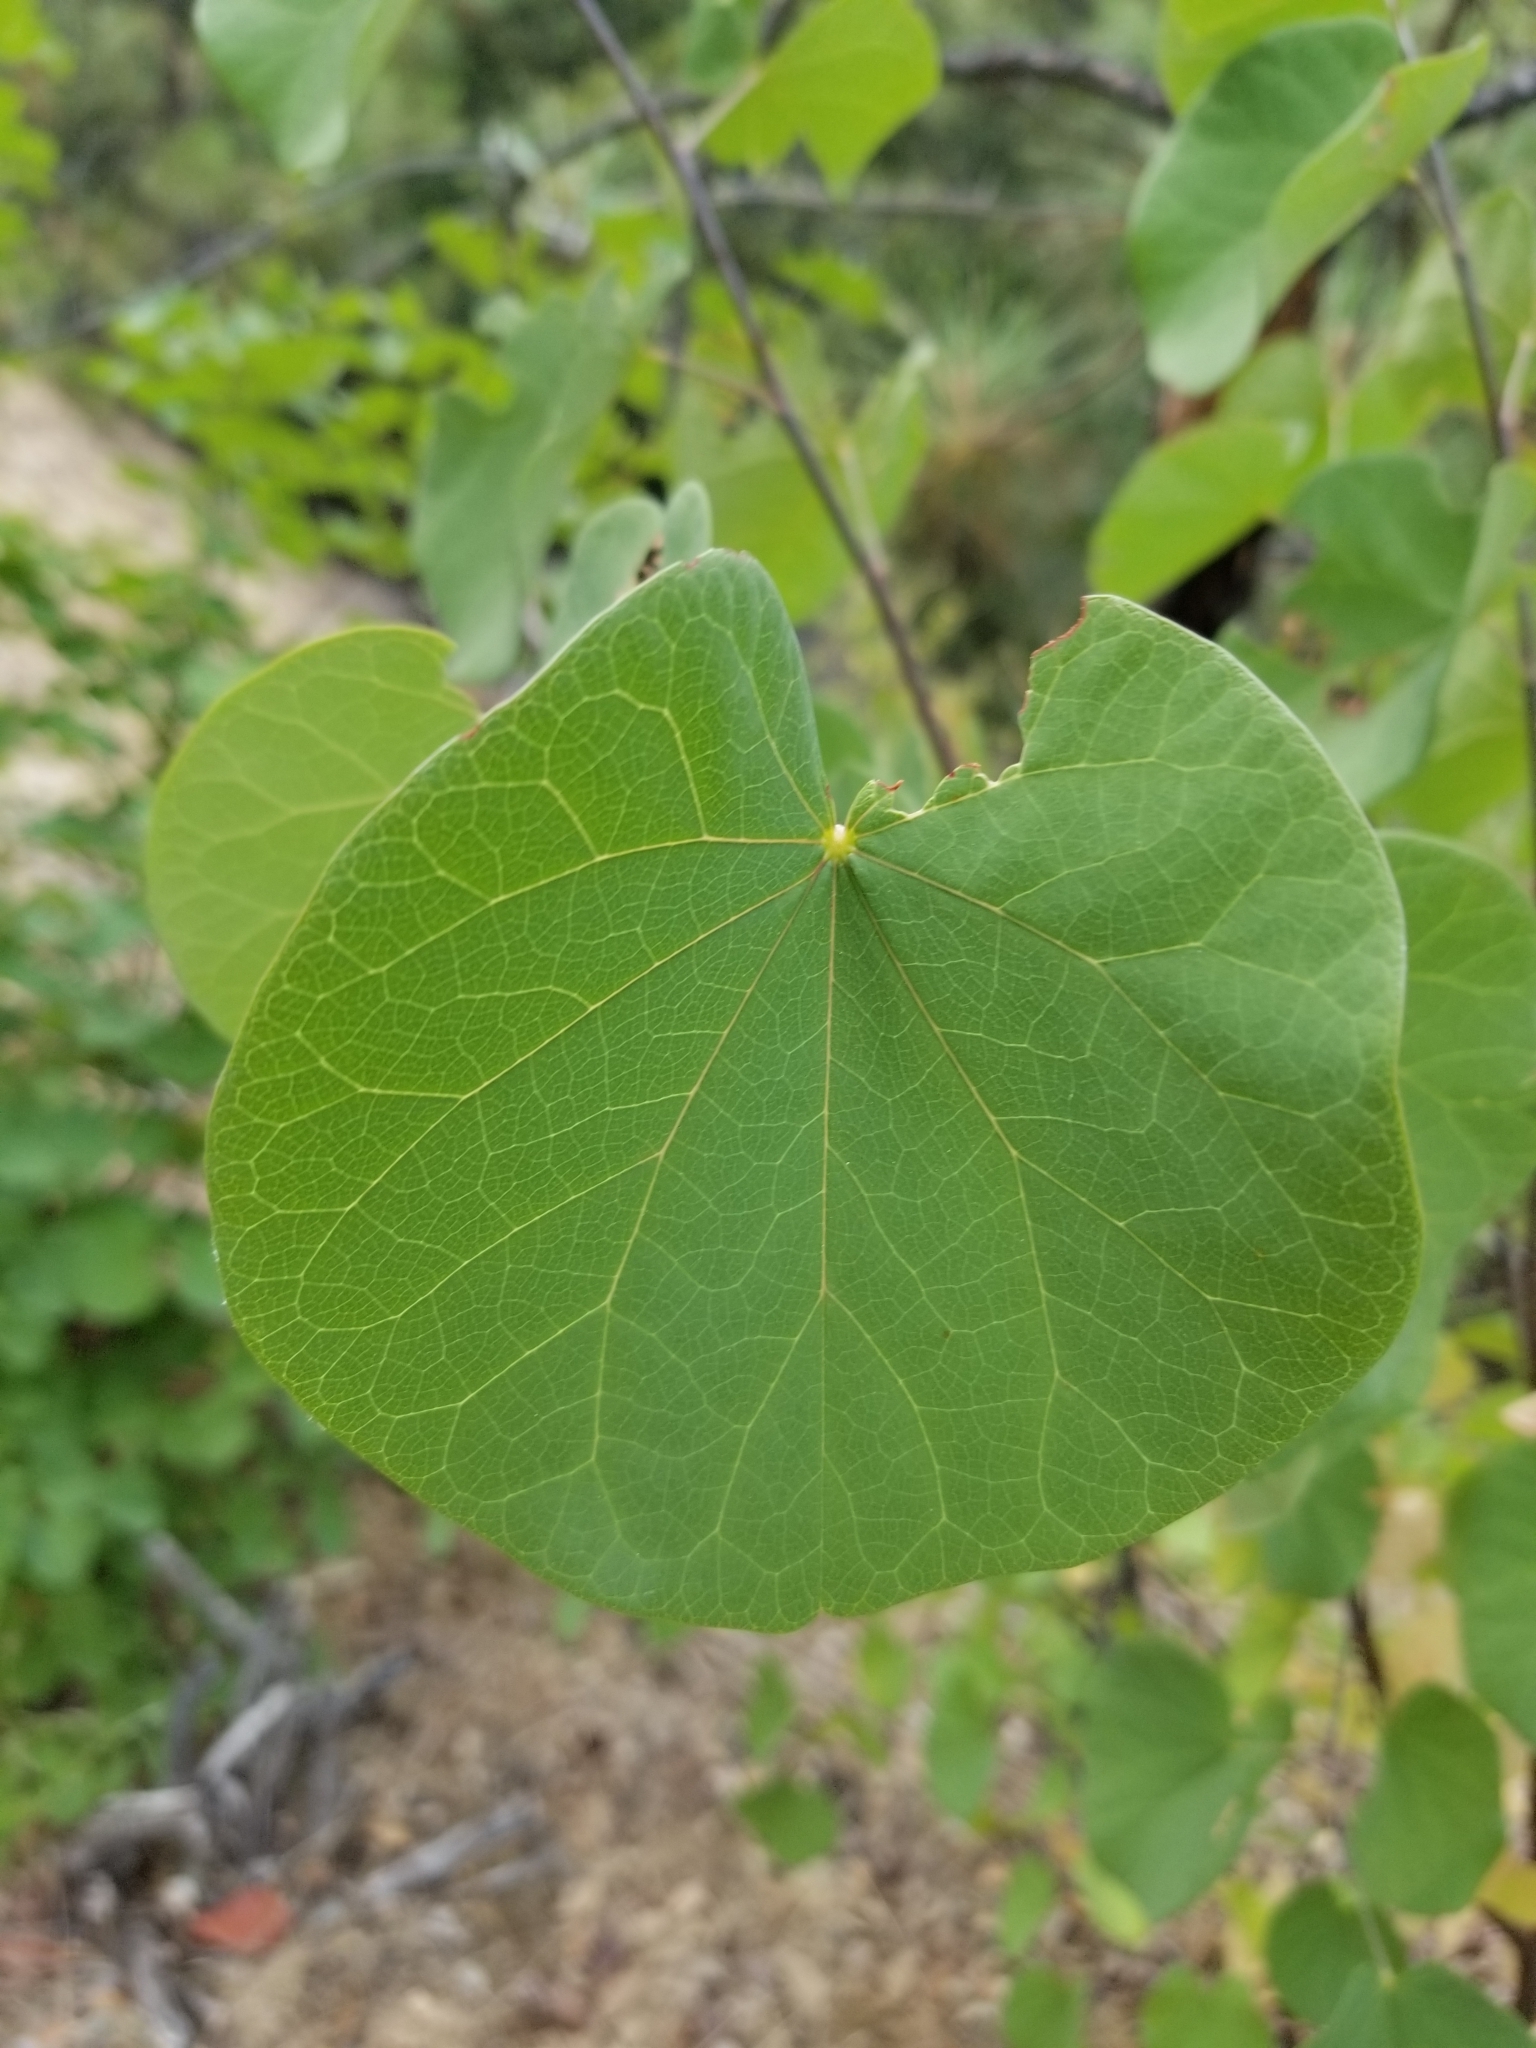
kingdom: Plantae
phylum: Tracheophyta
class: Magnoliopsida
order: Fabales
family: Fabaceae
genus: Cercis
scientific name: Cercis occidentalis
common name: California redbud
